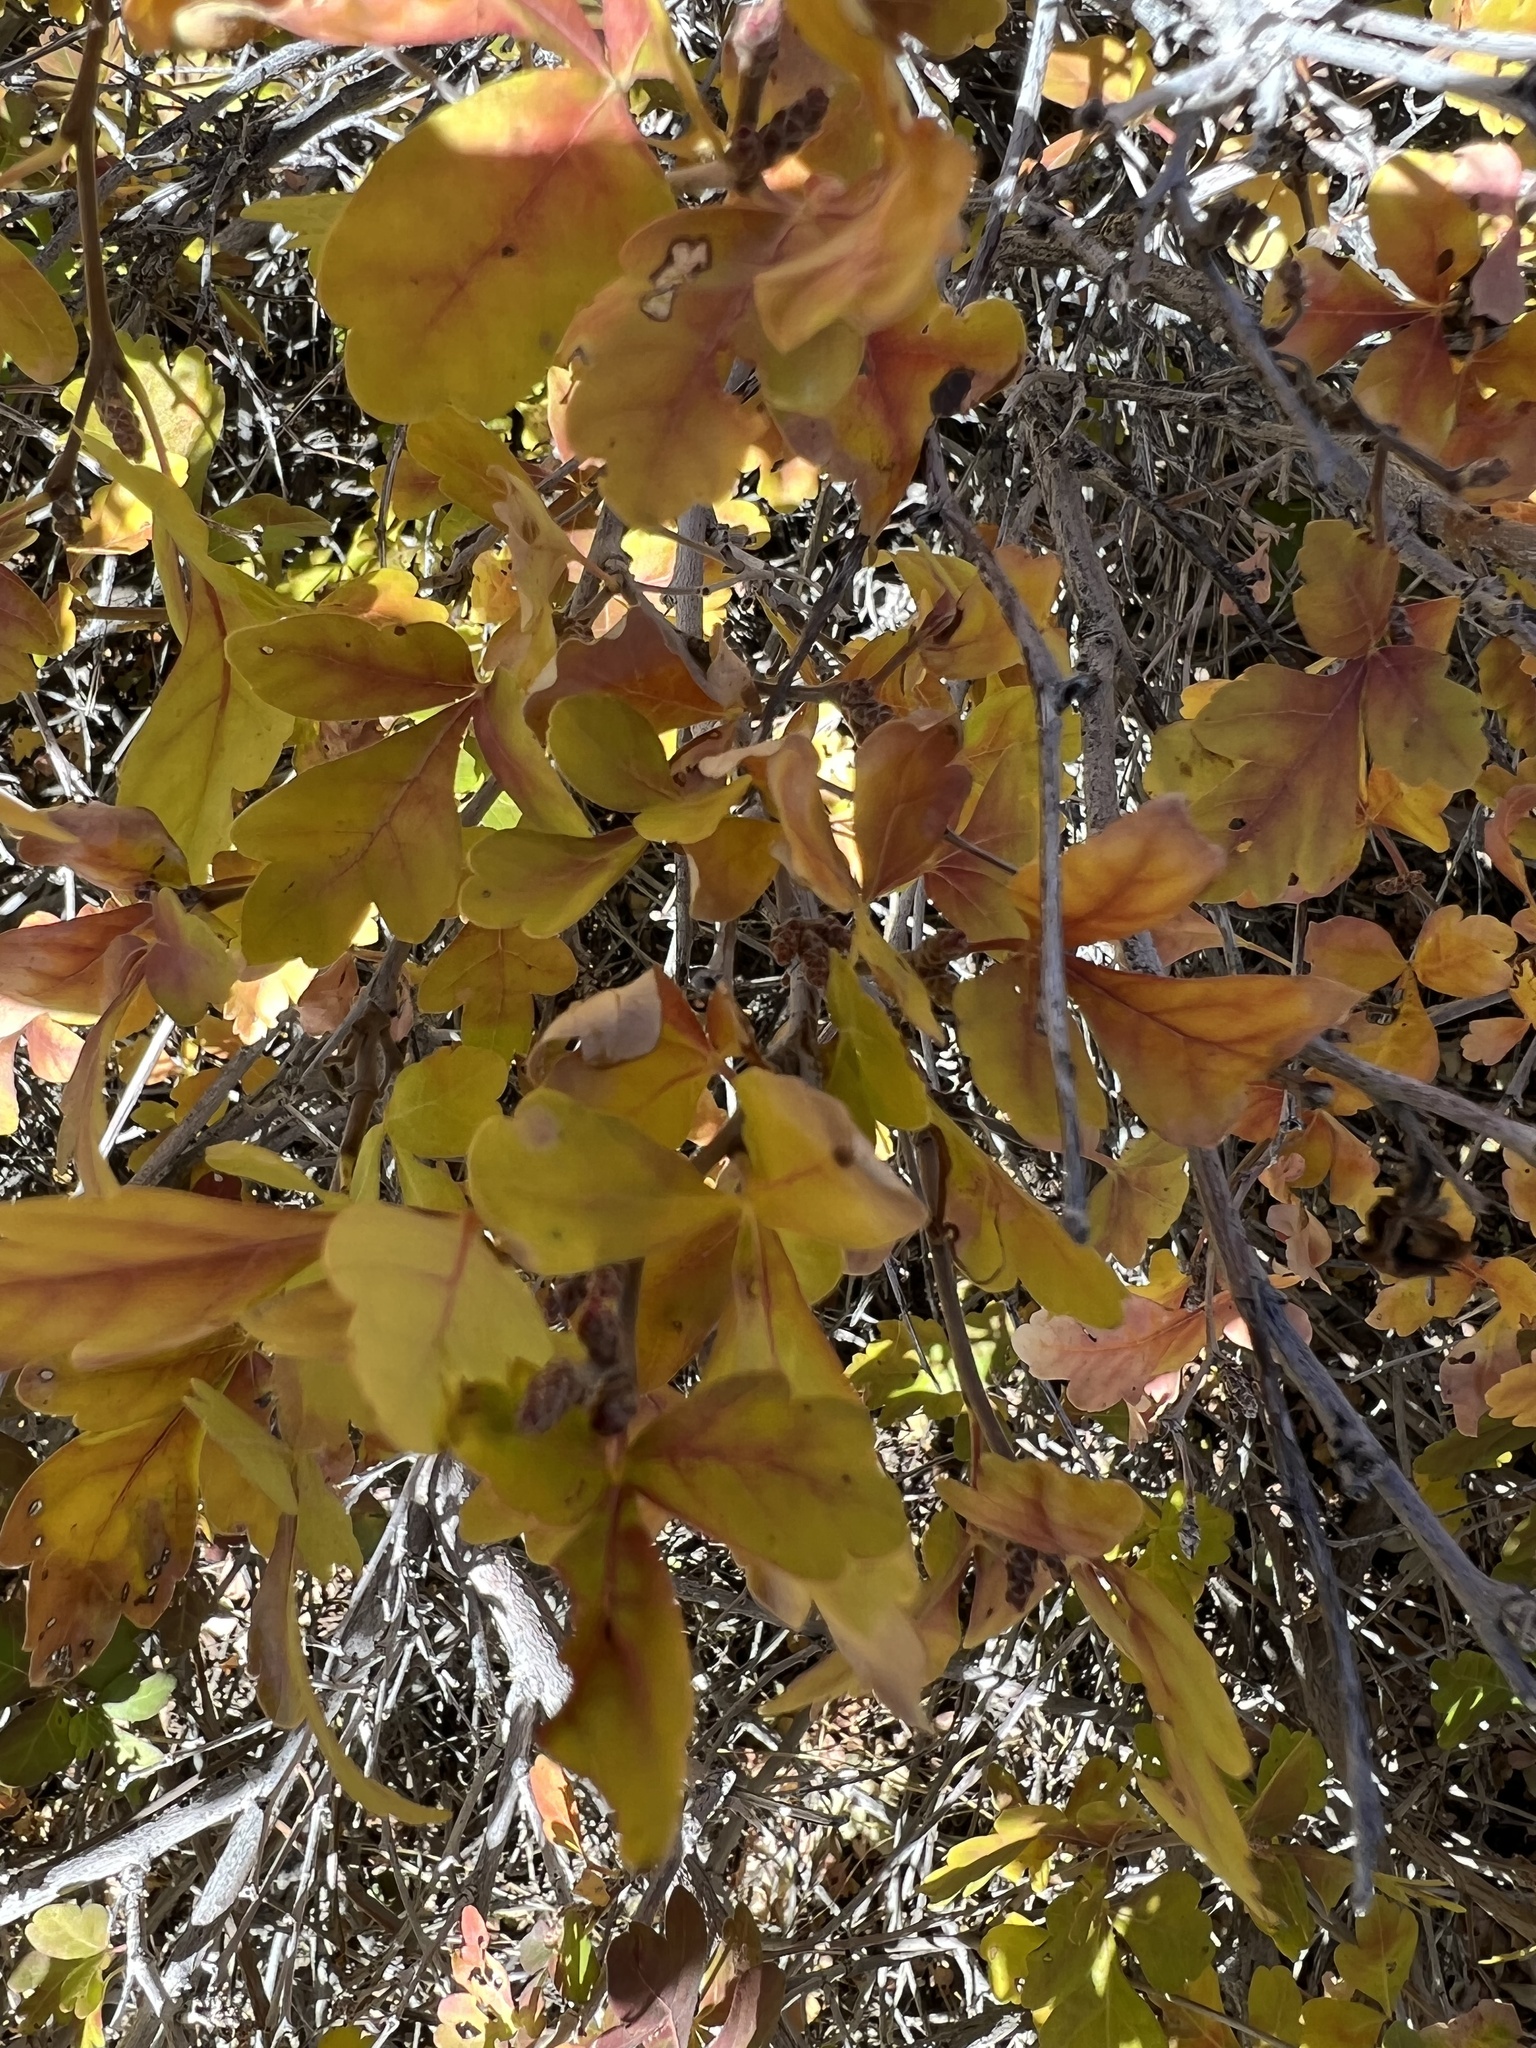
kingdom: Plantae
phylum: Tracheophyta
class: Magnoliopsida
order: Sapindales
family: Anacardiaceae
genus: Rhus
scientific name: Rhus trilobata
